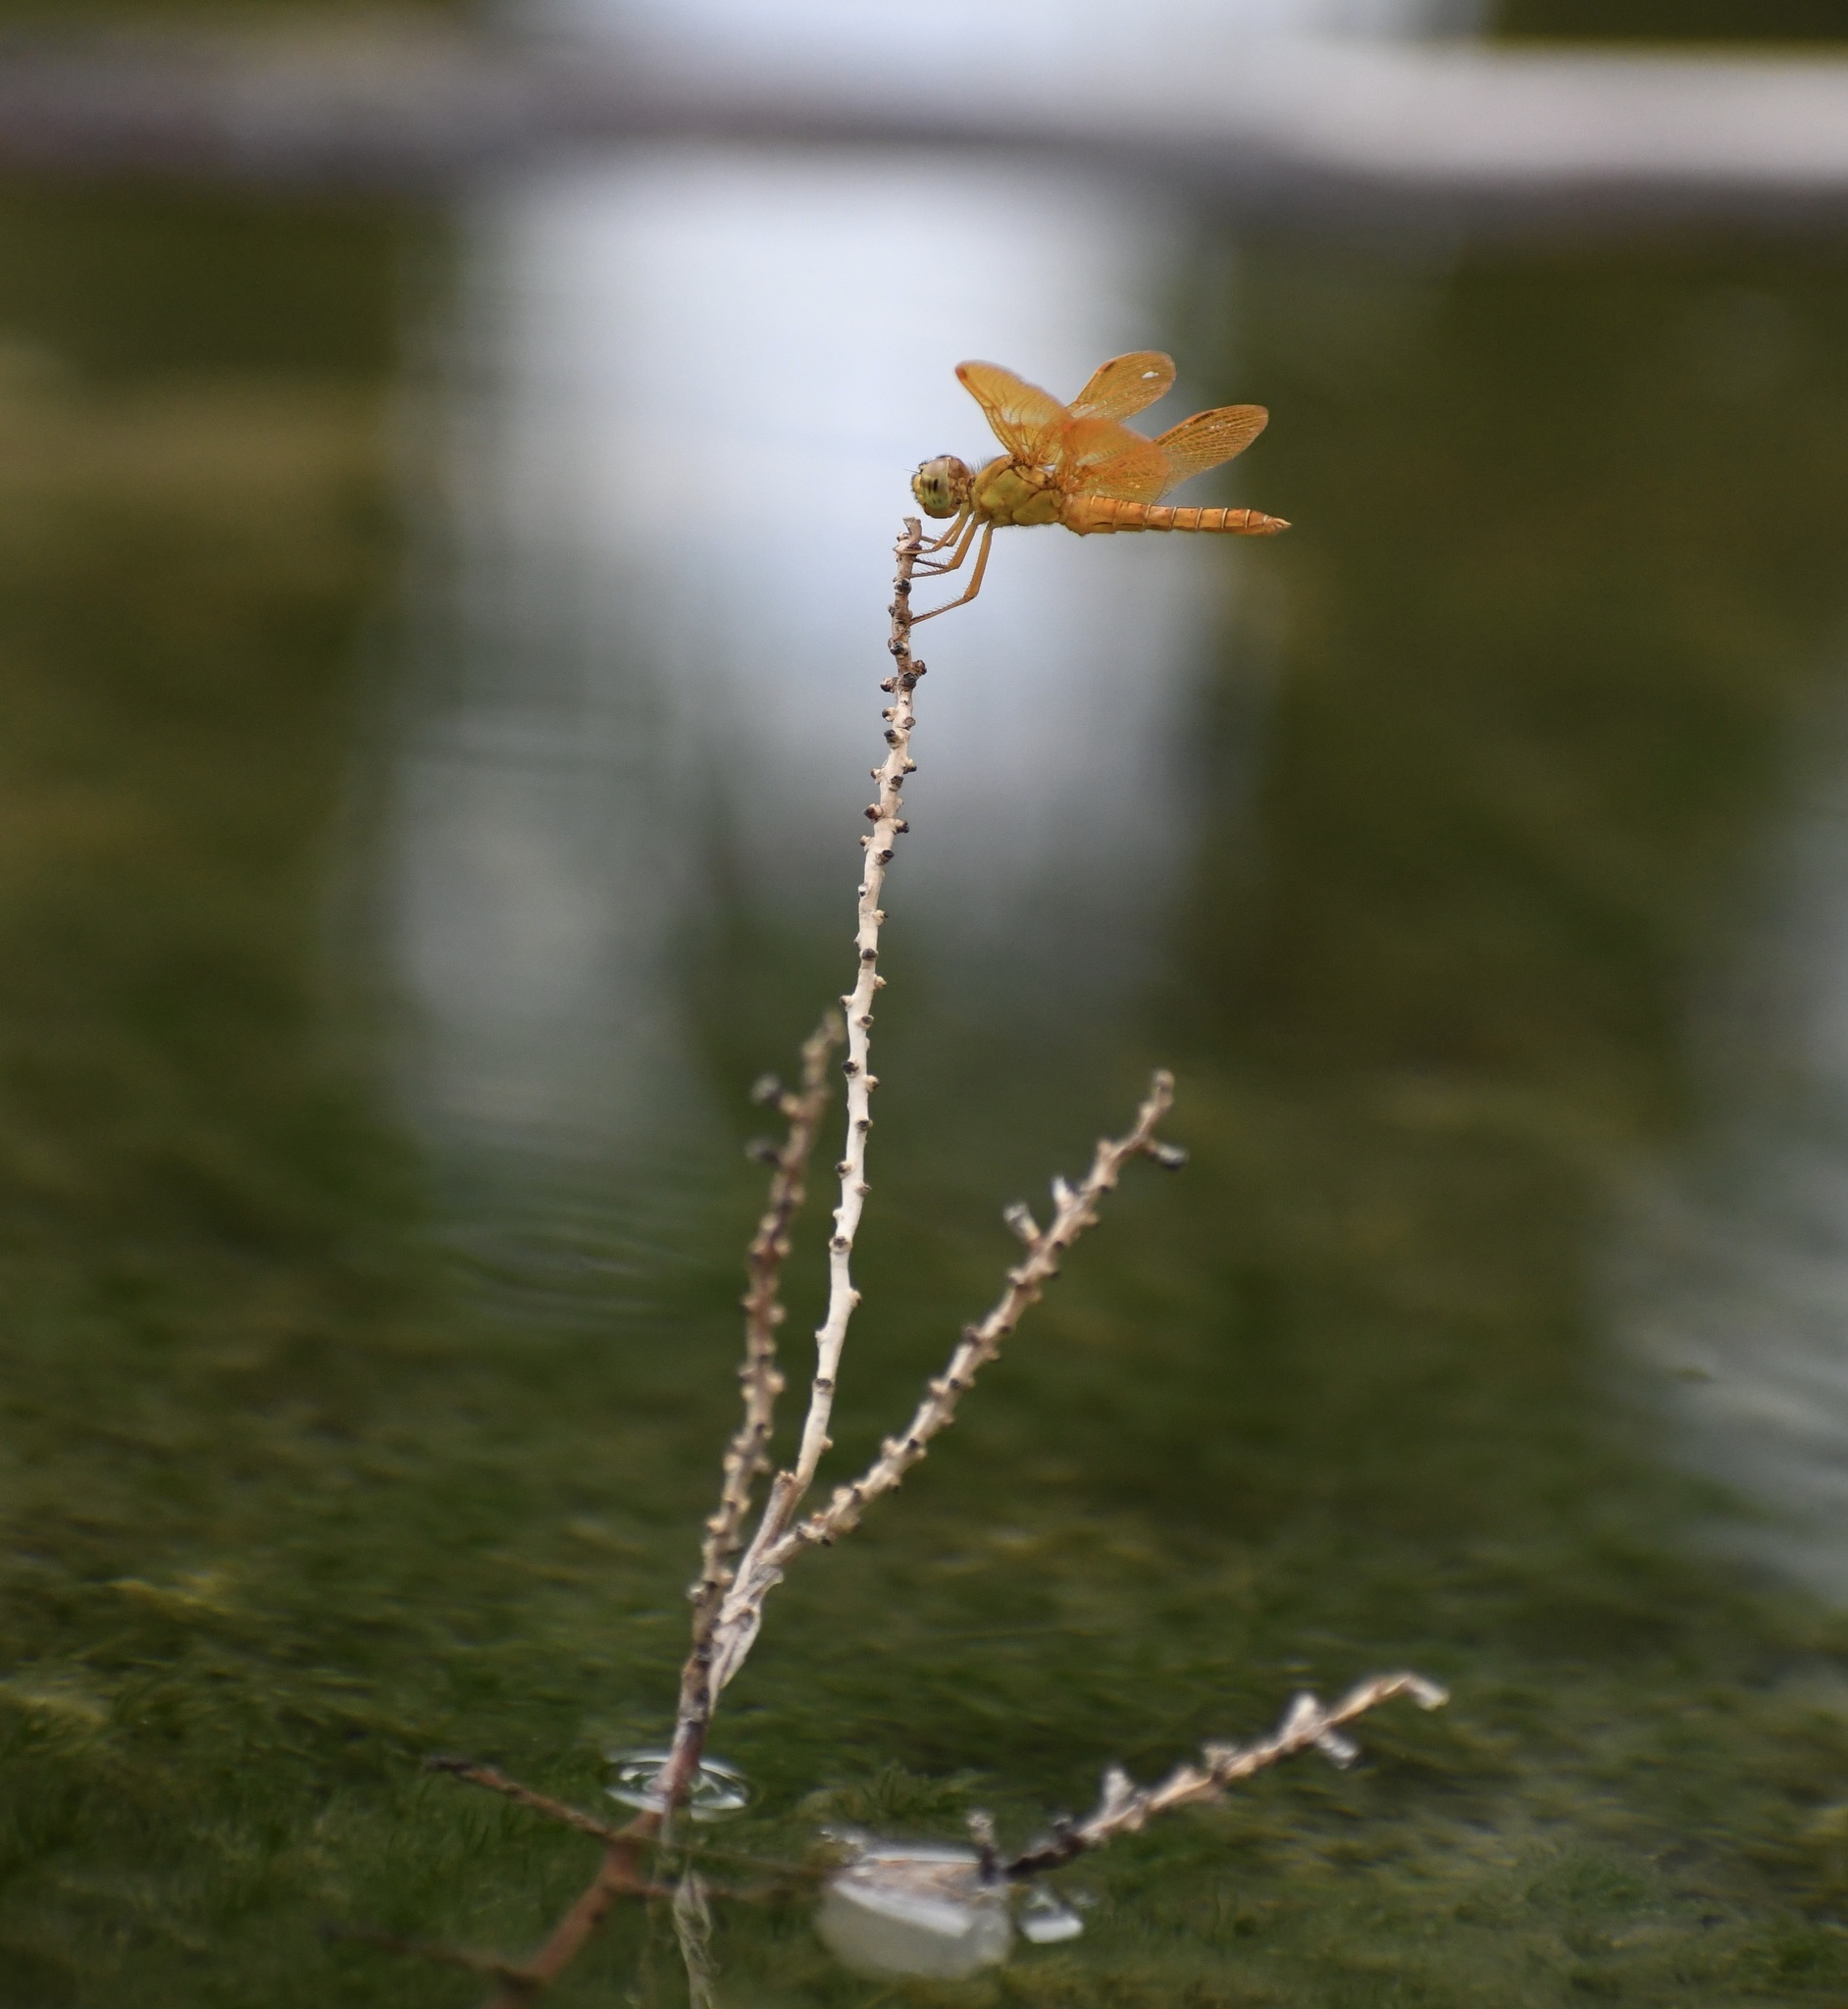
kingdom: Animalia
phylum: Arthropoda
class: Insecta
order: Odonata
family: Libellulidae
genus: Perithemis
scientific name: Perithemis intensa
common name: Mexican amberwing
